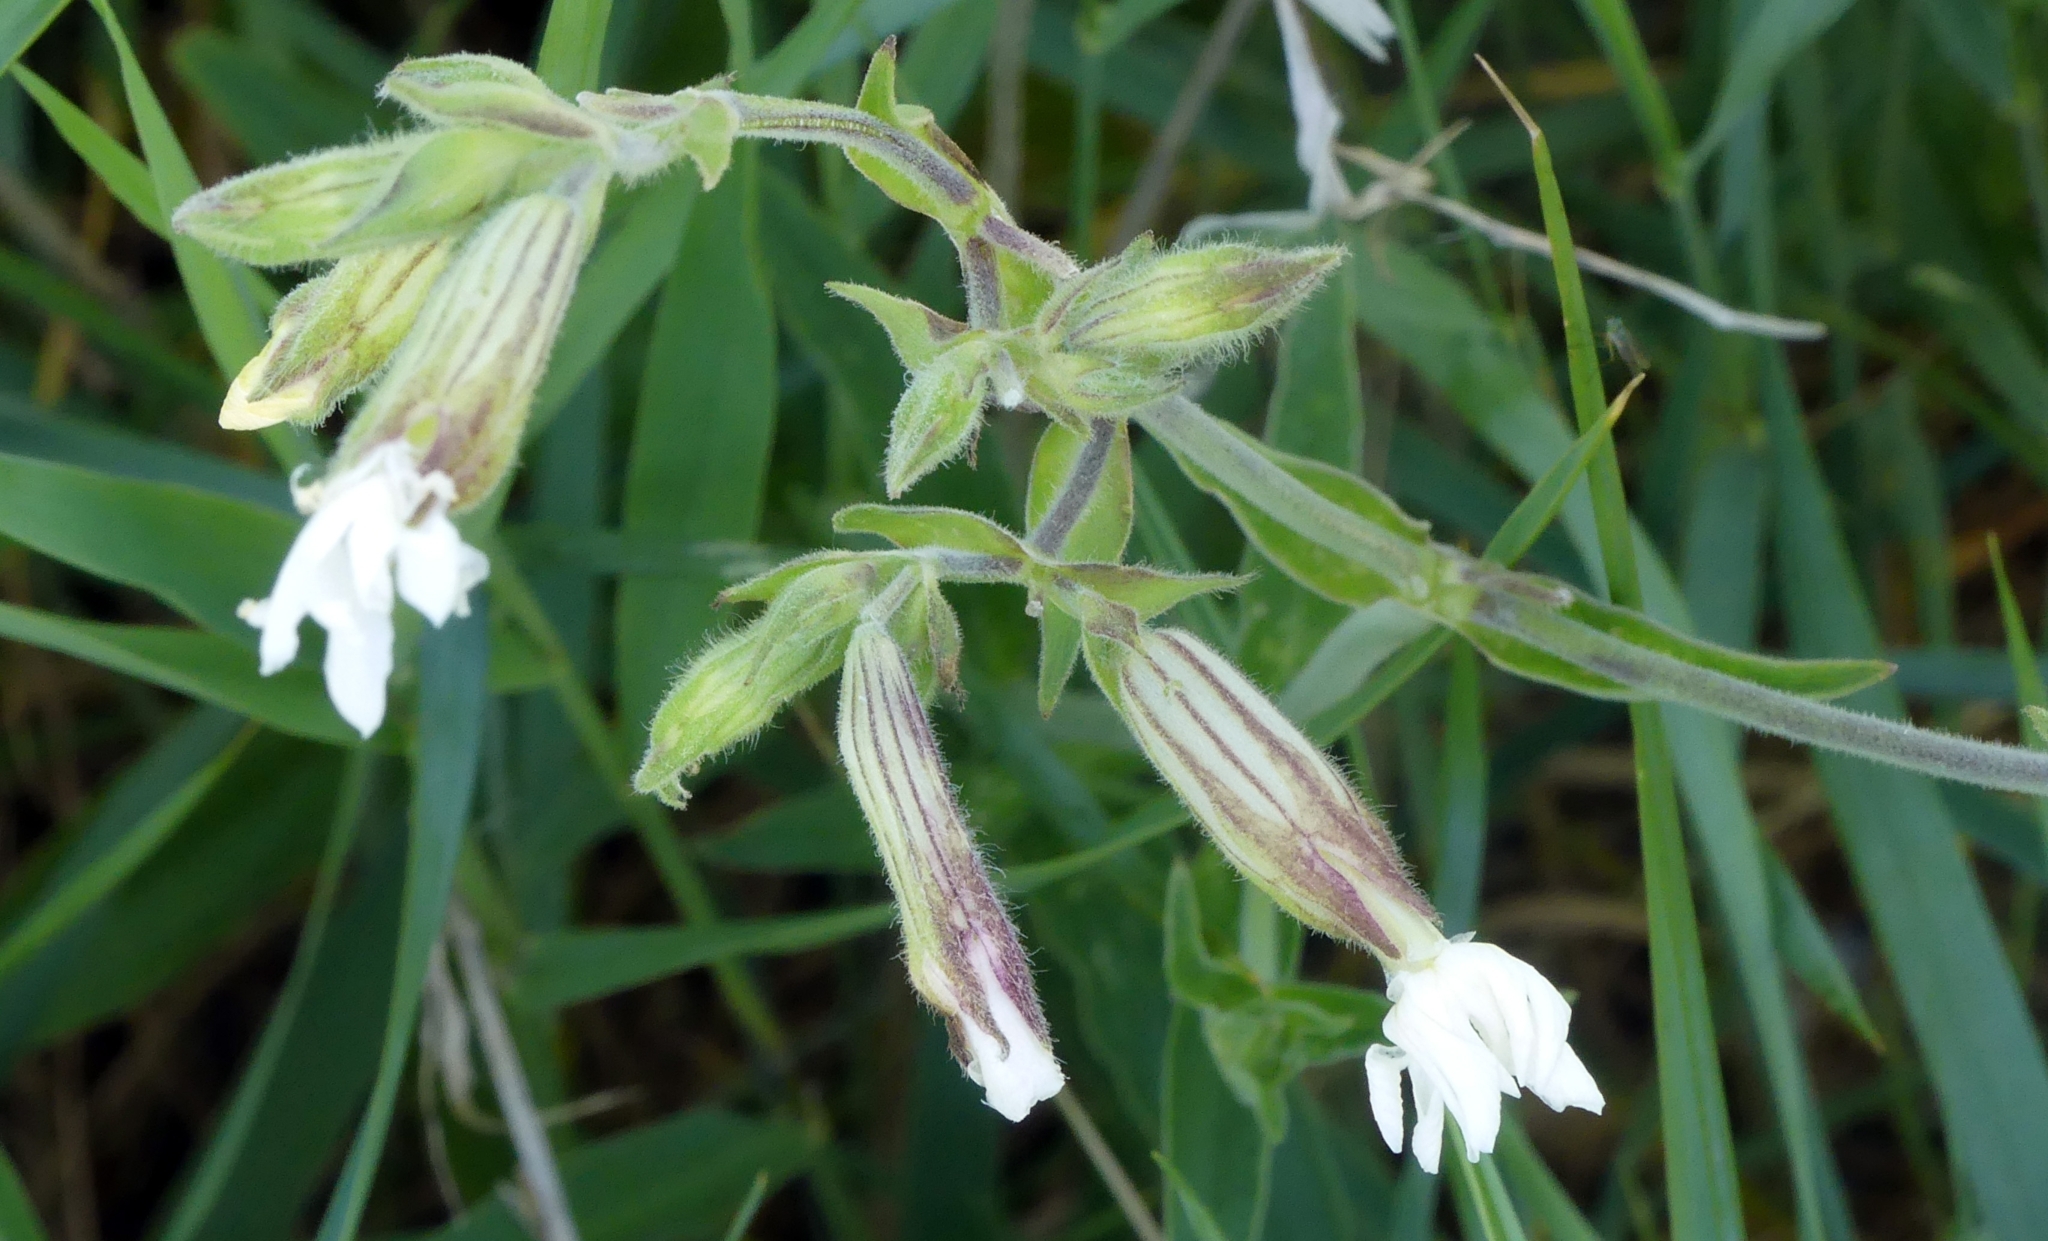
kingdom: Plantae
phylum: Tracheophyta
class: Magnoliopsida
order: Caryophyllales
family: Caryophyllaceae
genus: Silene
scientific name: Silene latifolia
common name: White campion
